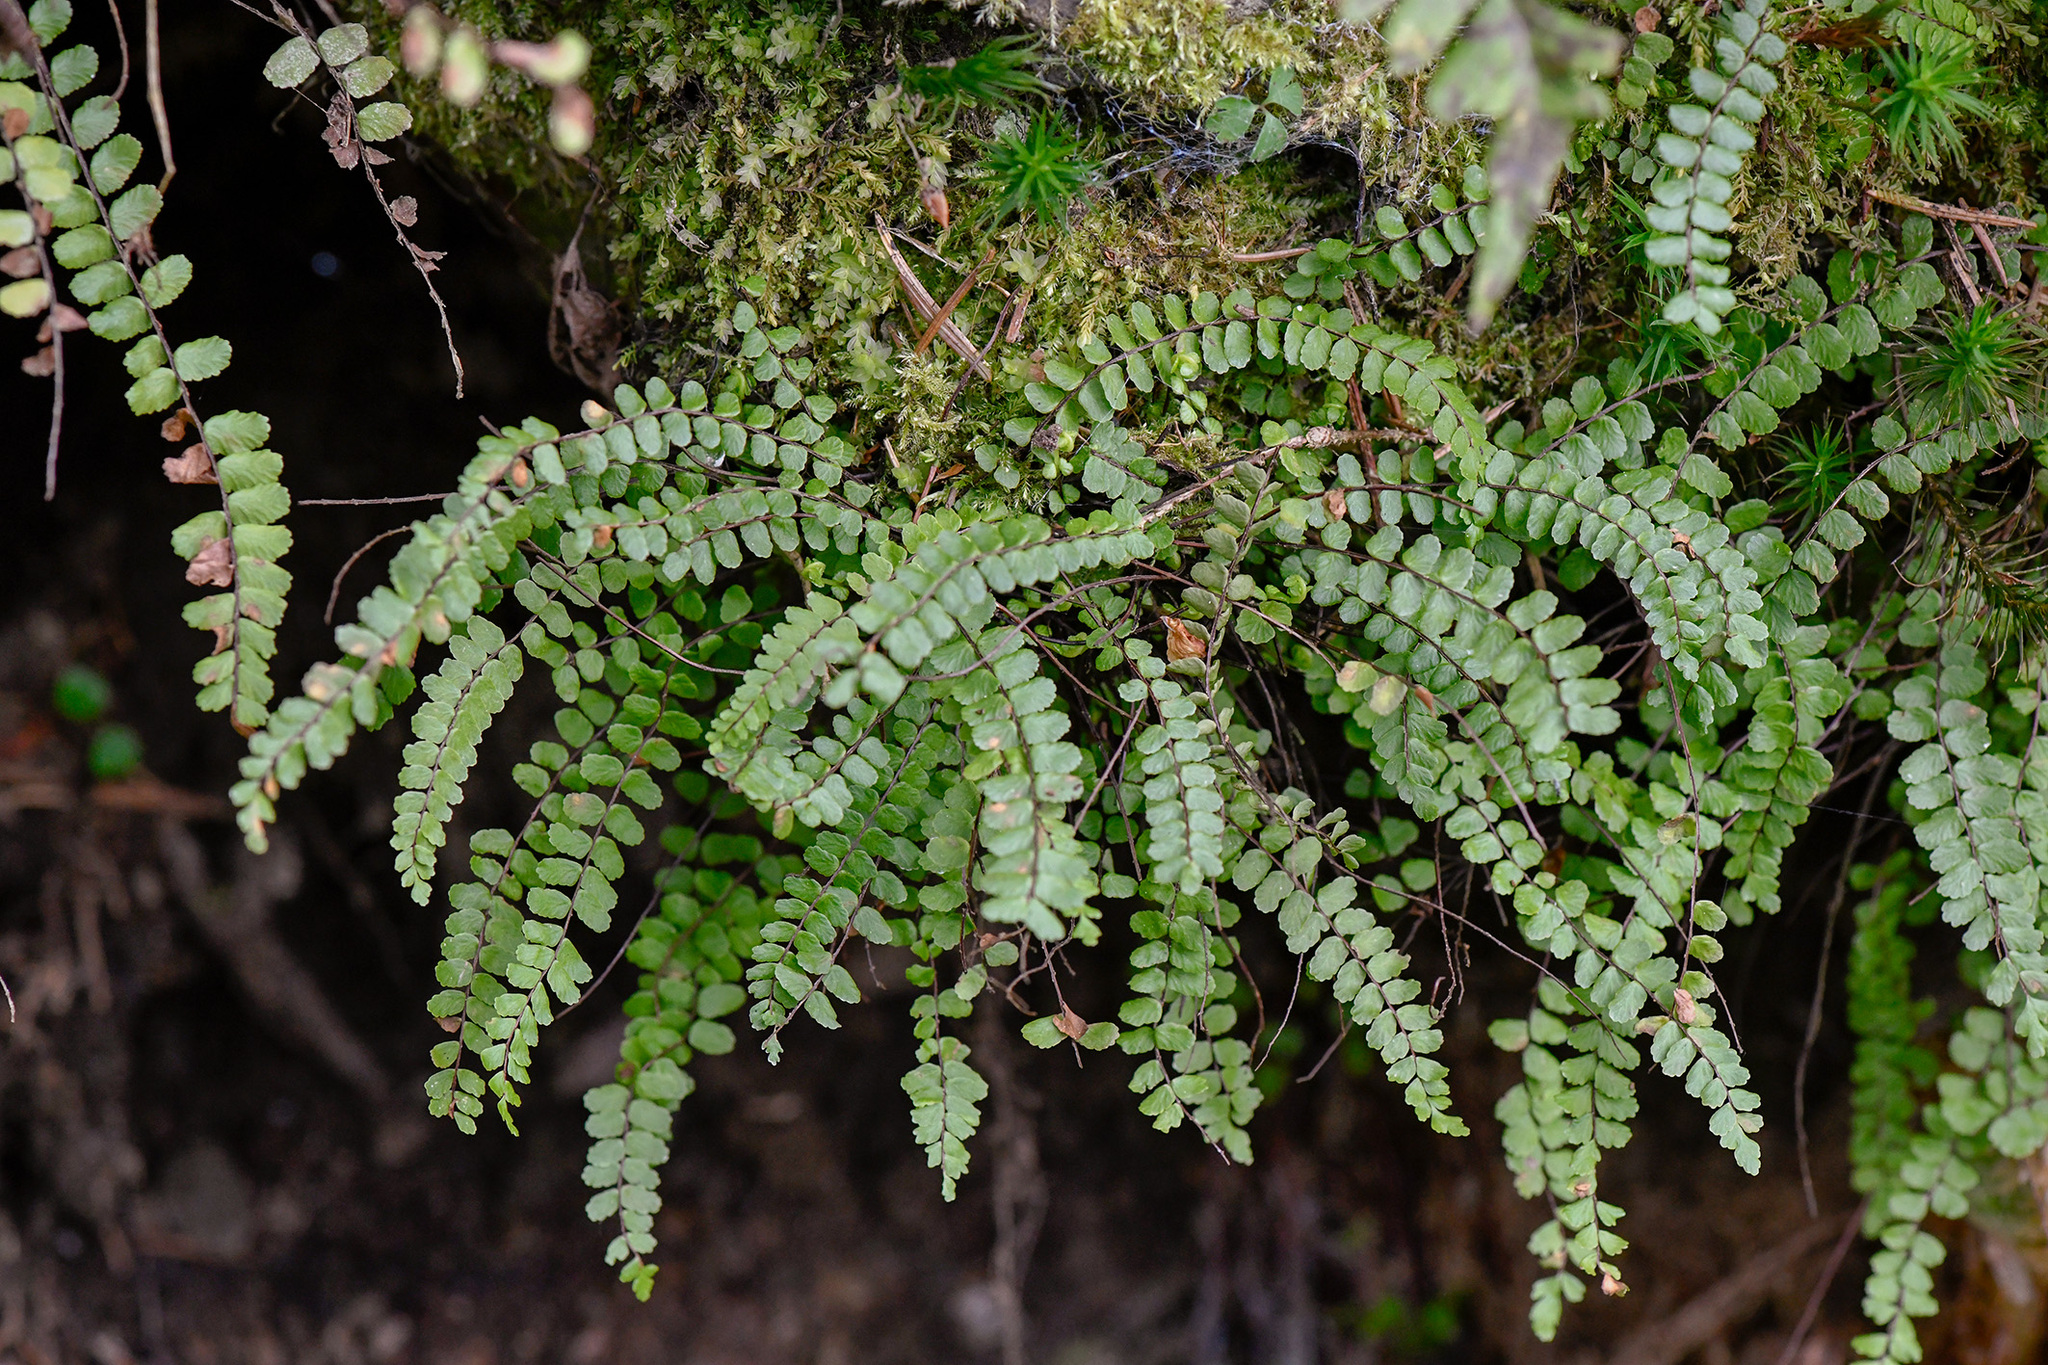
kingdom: Plantae
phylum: Tracheophyta
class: Polypodiopsida
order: Polypodiales
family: Aspleniaceae
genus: Asplenium
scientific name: Asplenium trichomanes
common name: Maidenhair spleenwort
